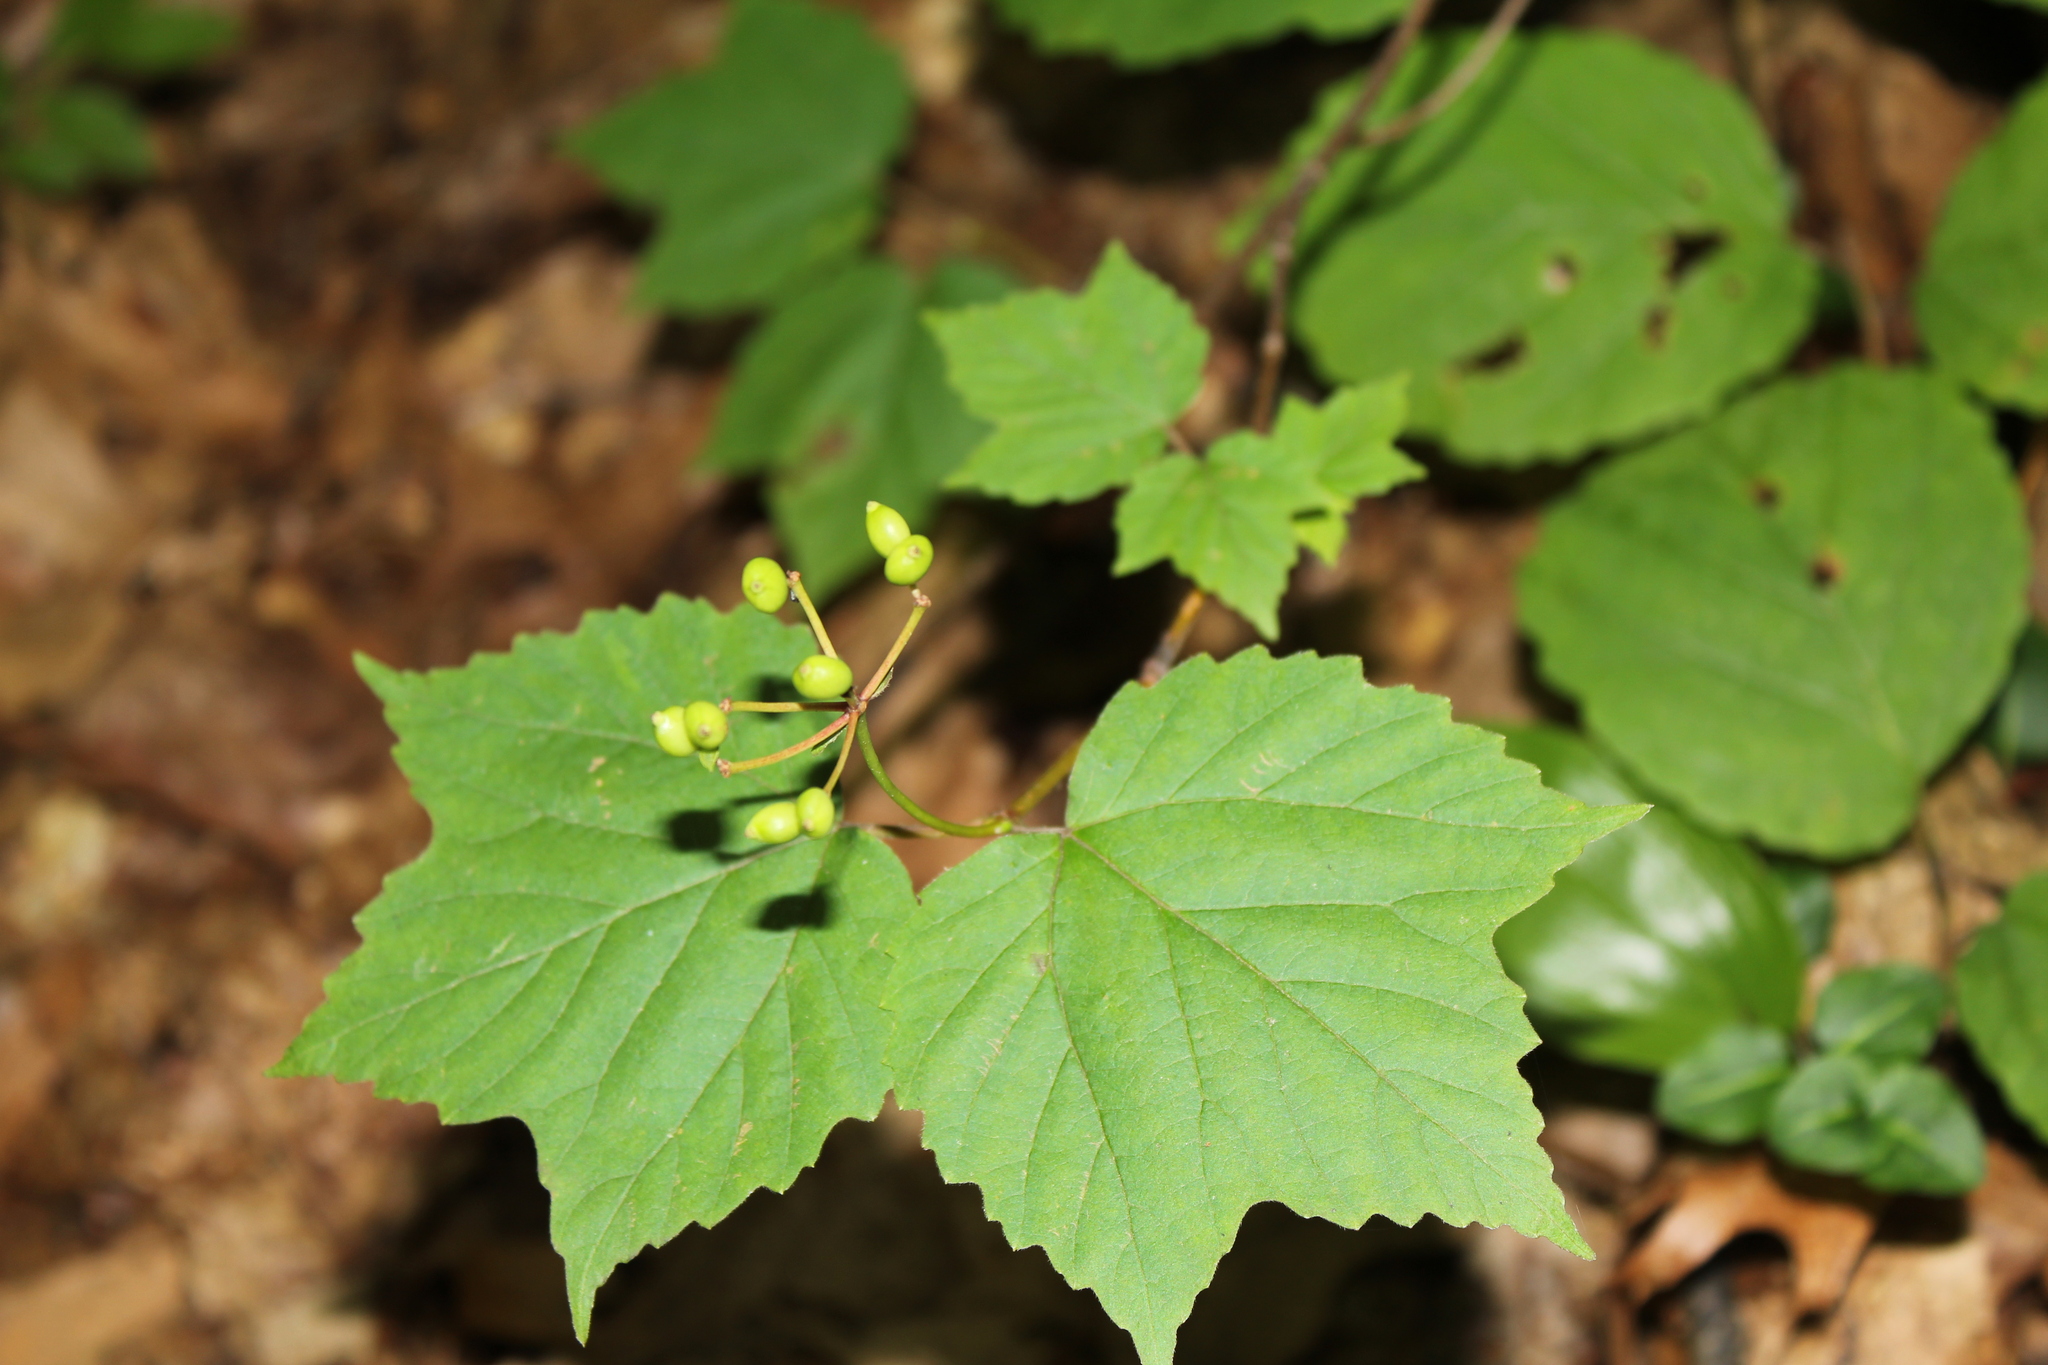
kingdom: Plantae
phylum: Tracheophyta
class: Magnoliopsida
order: Dipsacales
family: Viburnaceae
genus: Viburnum
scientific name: Viburnum acerifolium
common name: Dockmackie
